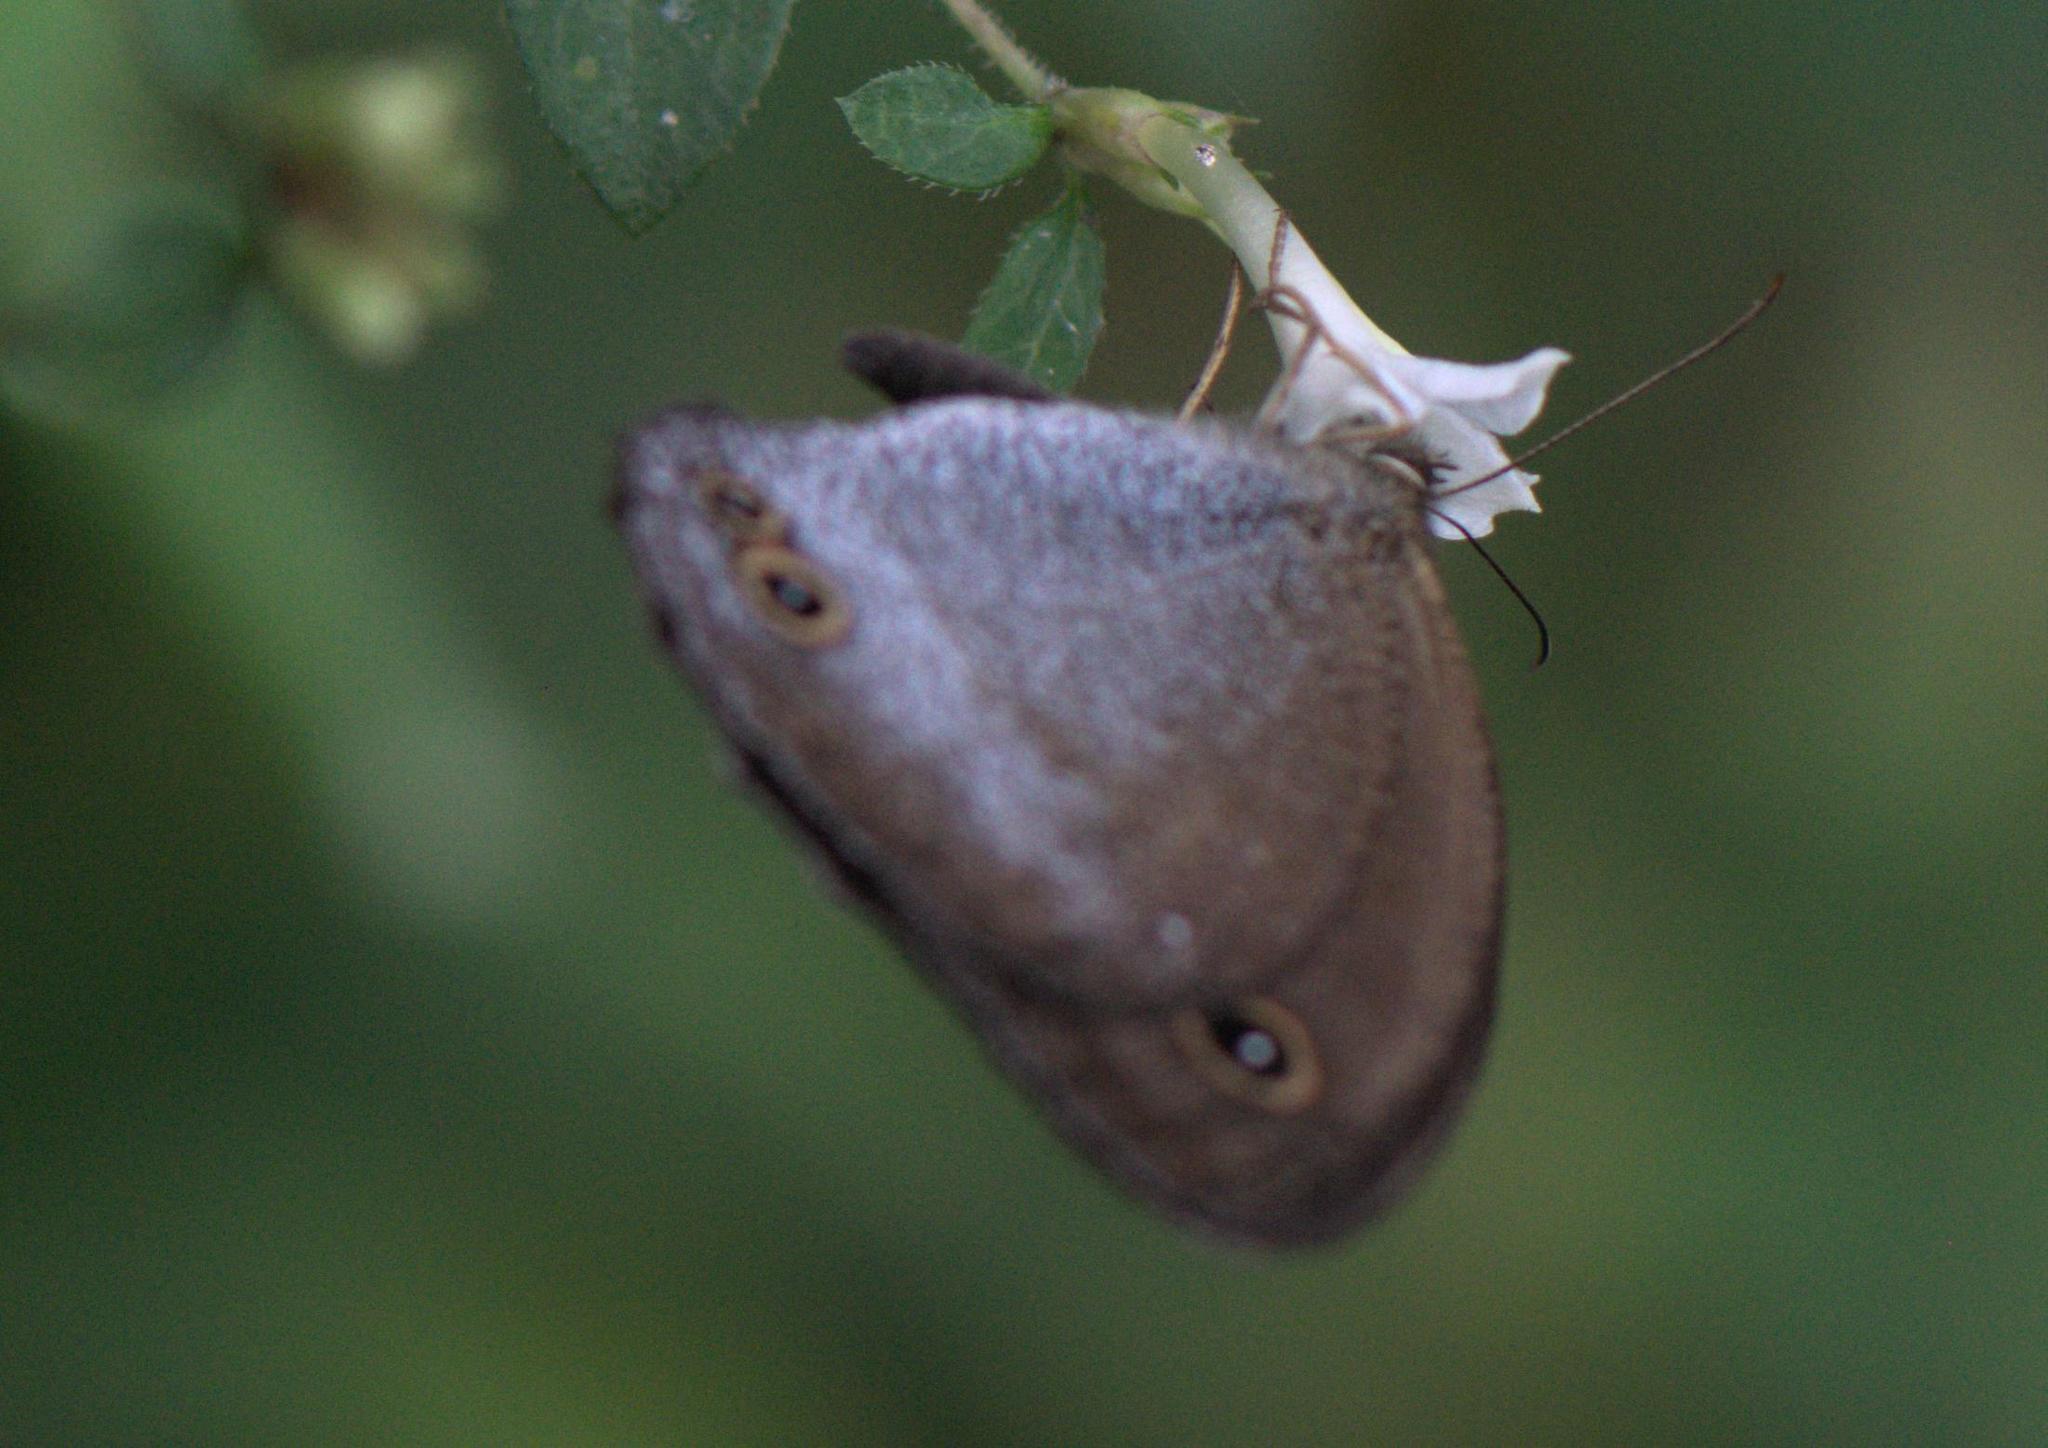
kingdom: Animalia
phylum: Arthropoda
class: Insecta
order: Lepidoptera
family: Nymphalidae
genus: Callerebia
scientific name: Callerebia scanda
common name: Pallid argus
